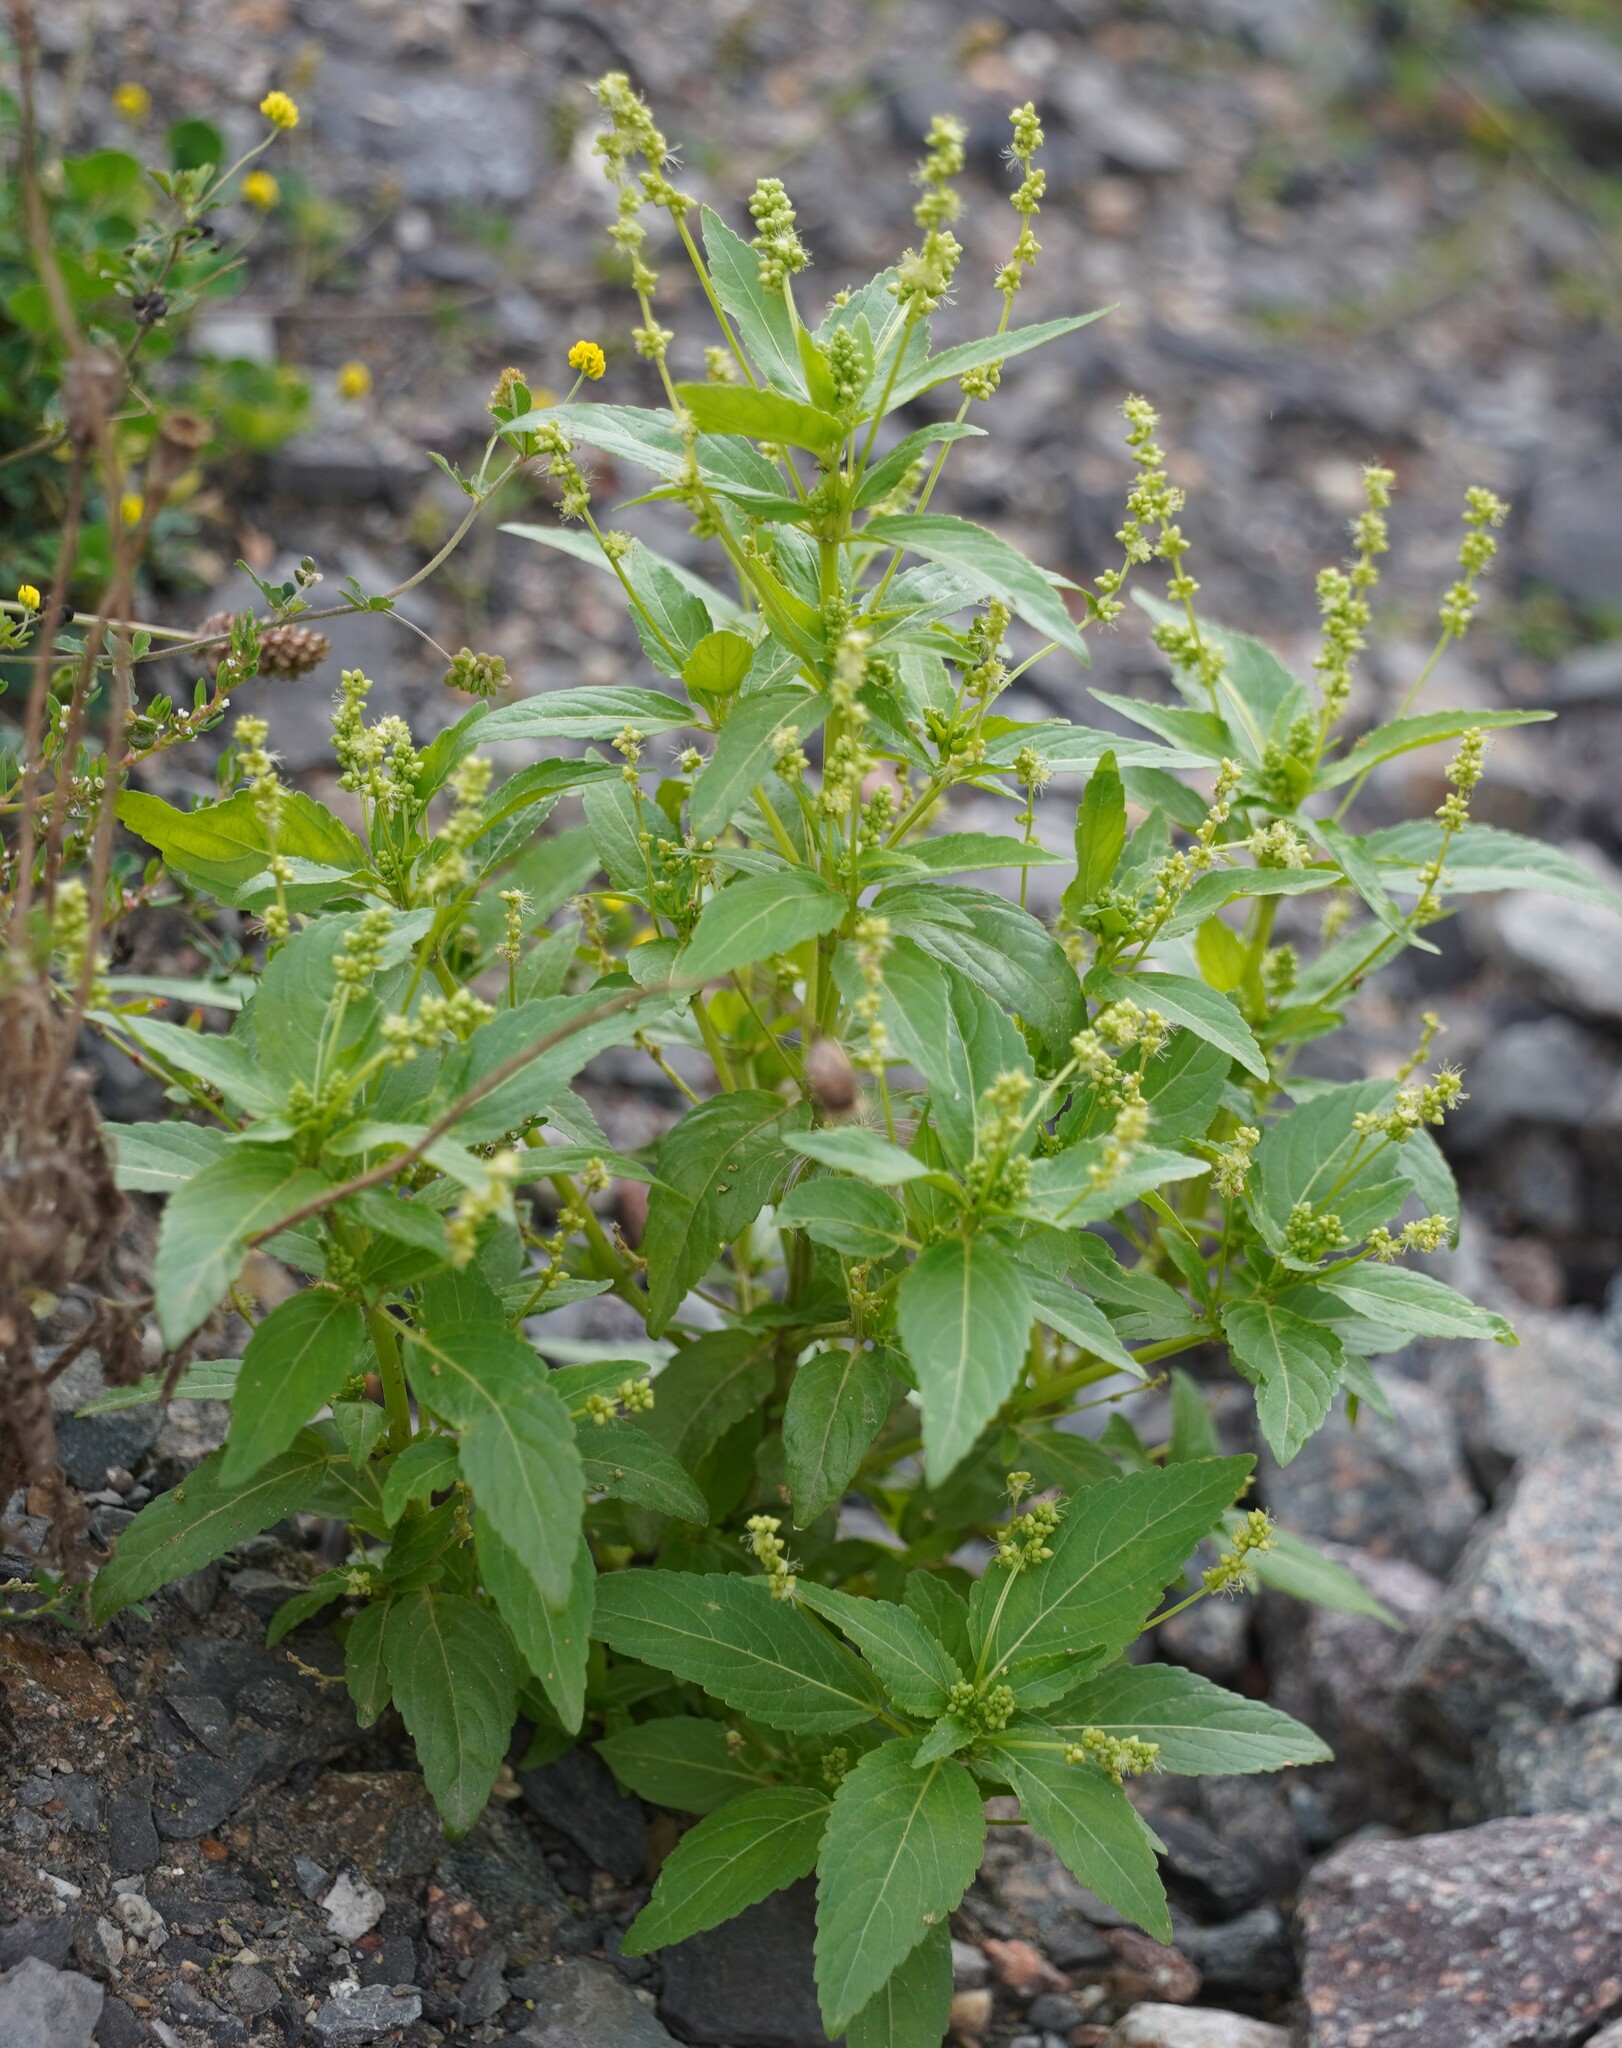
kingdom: Plantae
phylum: Tracheophyta
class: Magnoliopsida
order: Malpighiales
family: Euphorbiaceae
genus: Mercurialis
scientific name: Mercurialis annua
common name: Annual mercury
